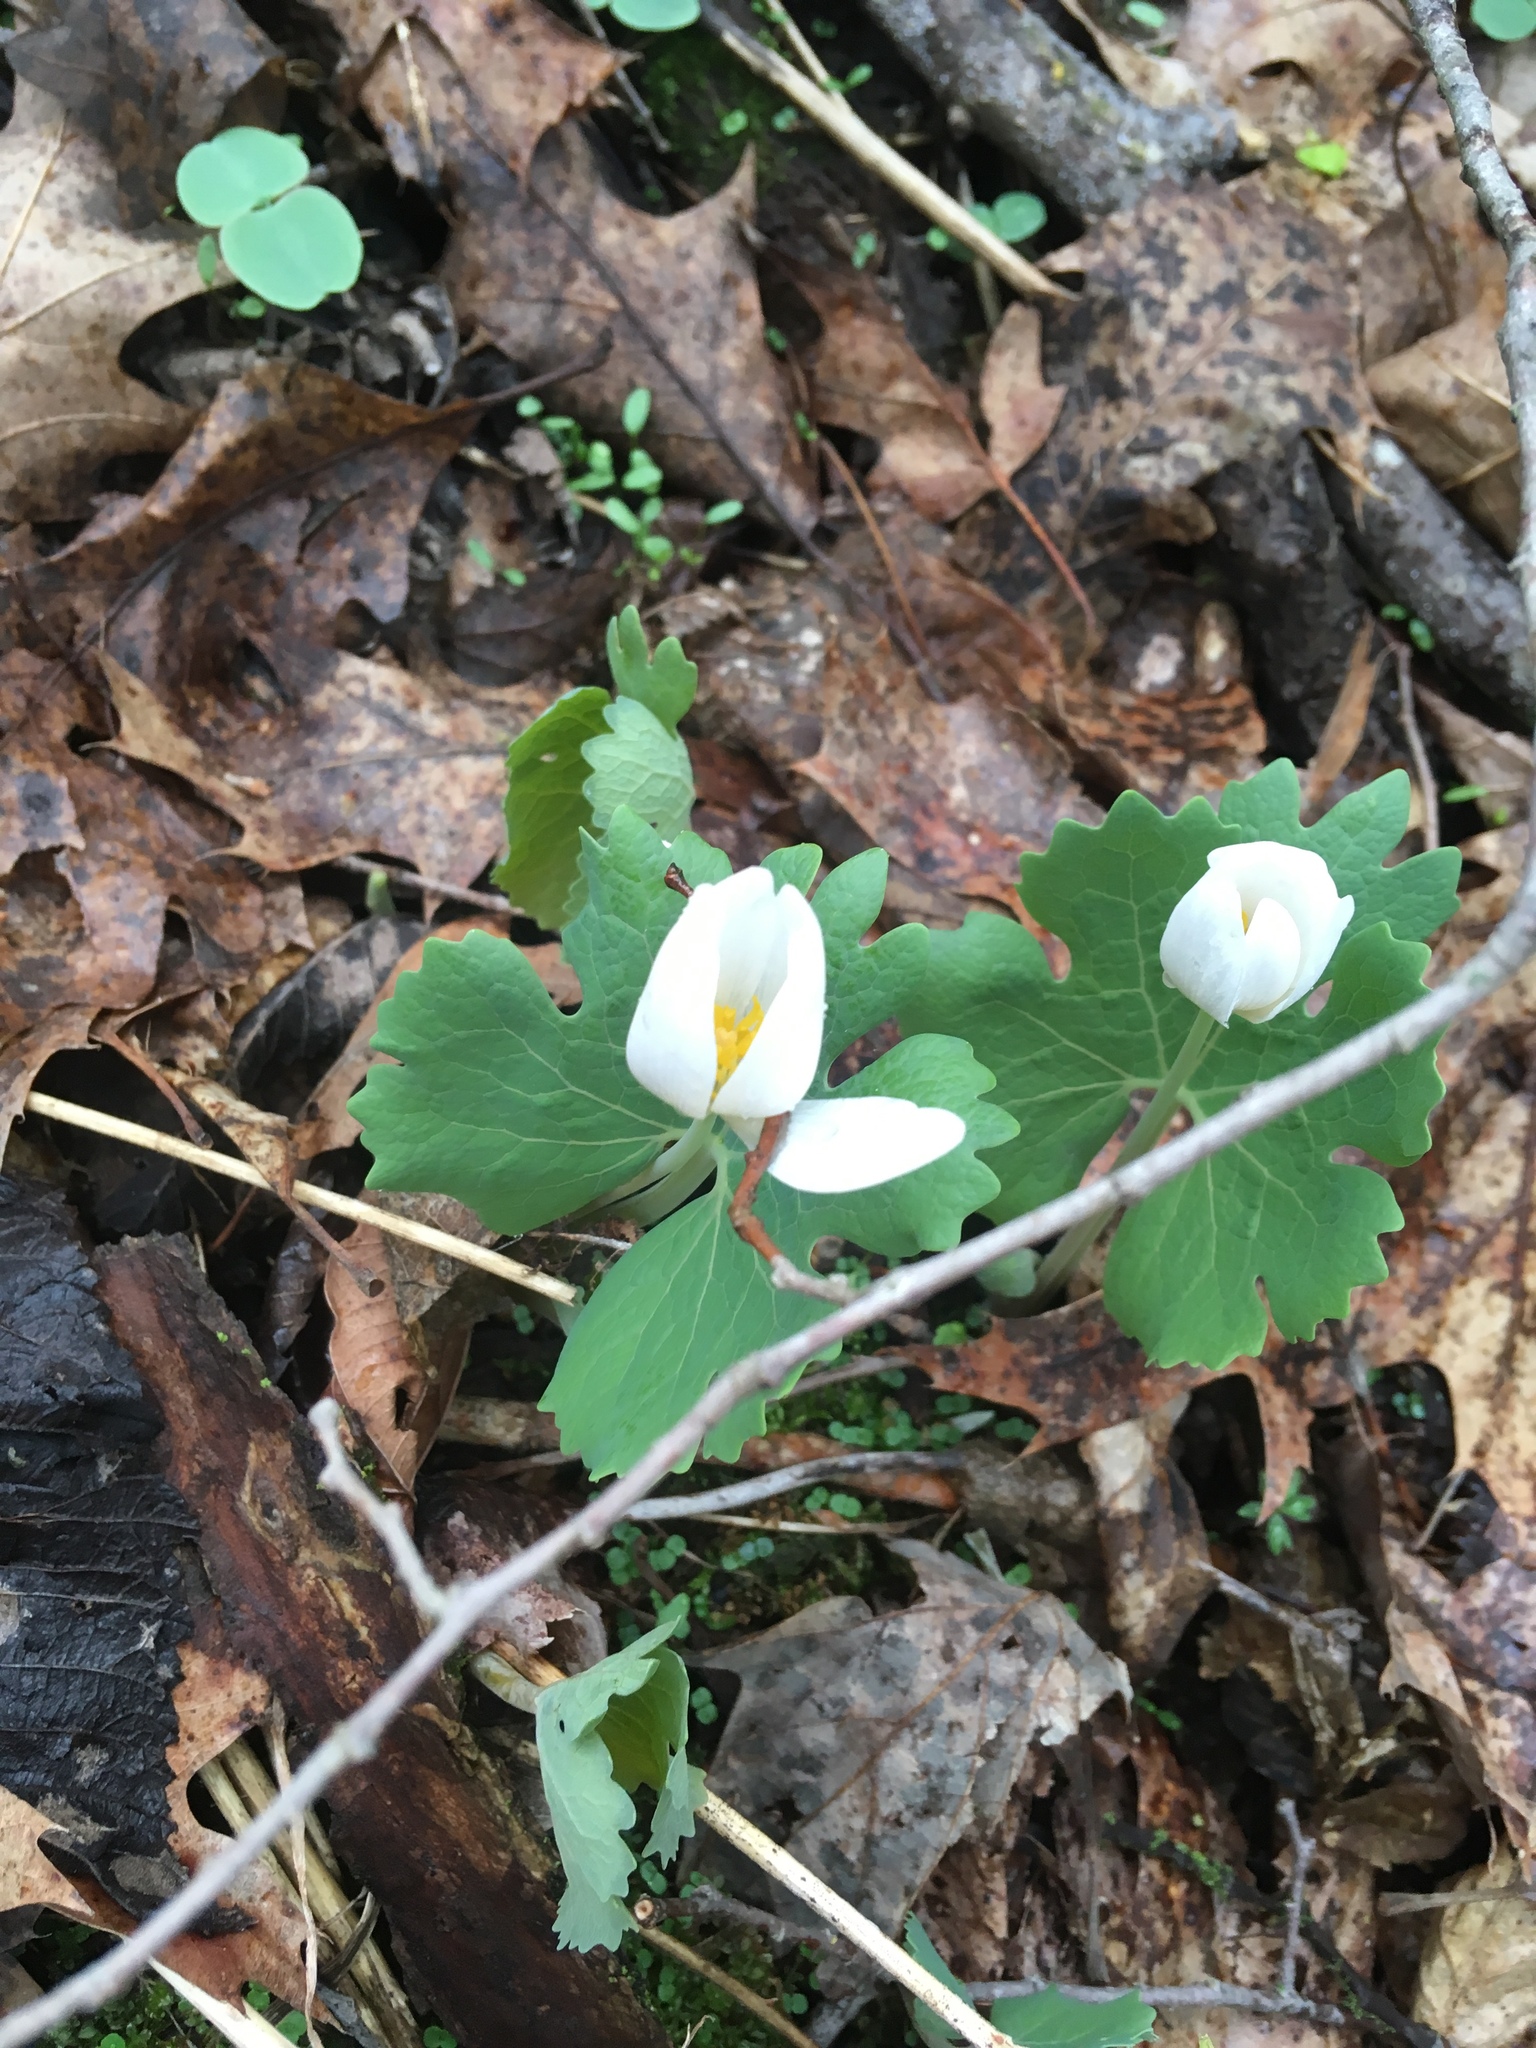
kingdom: Plantae
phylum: Tracheophyta
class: Magnoliopsida
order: Ranunculales
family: Papaveraceae
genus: Sanguinaria
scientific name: Sanguinaria canadensis
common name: Bloodroot
